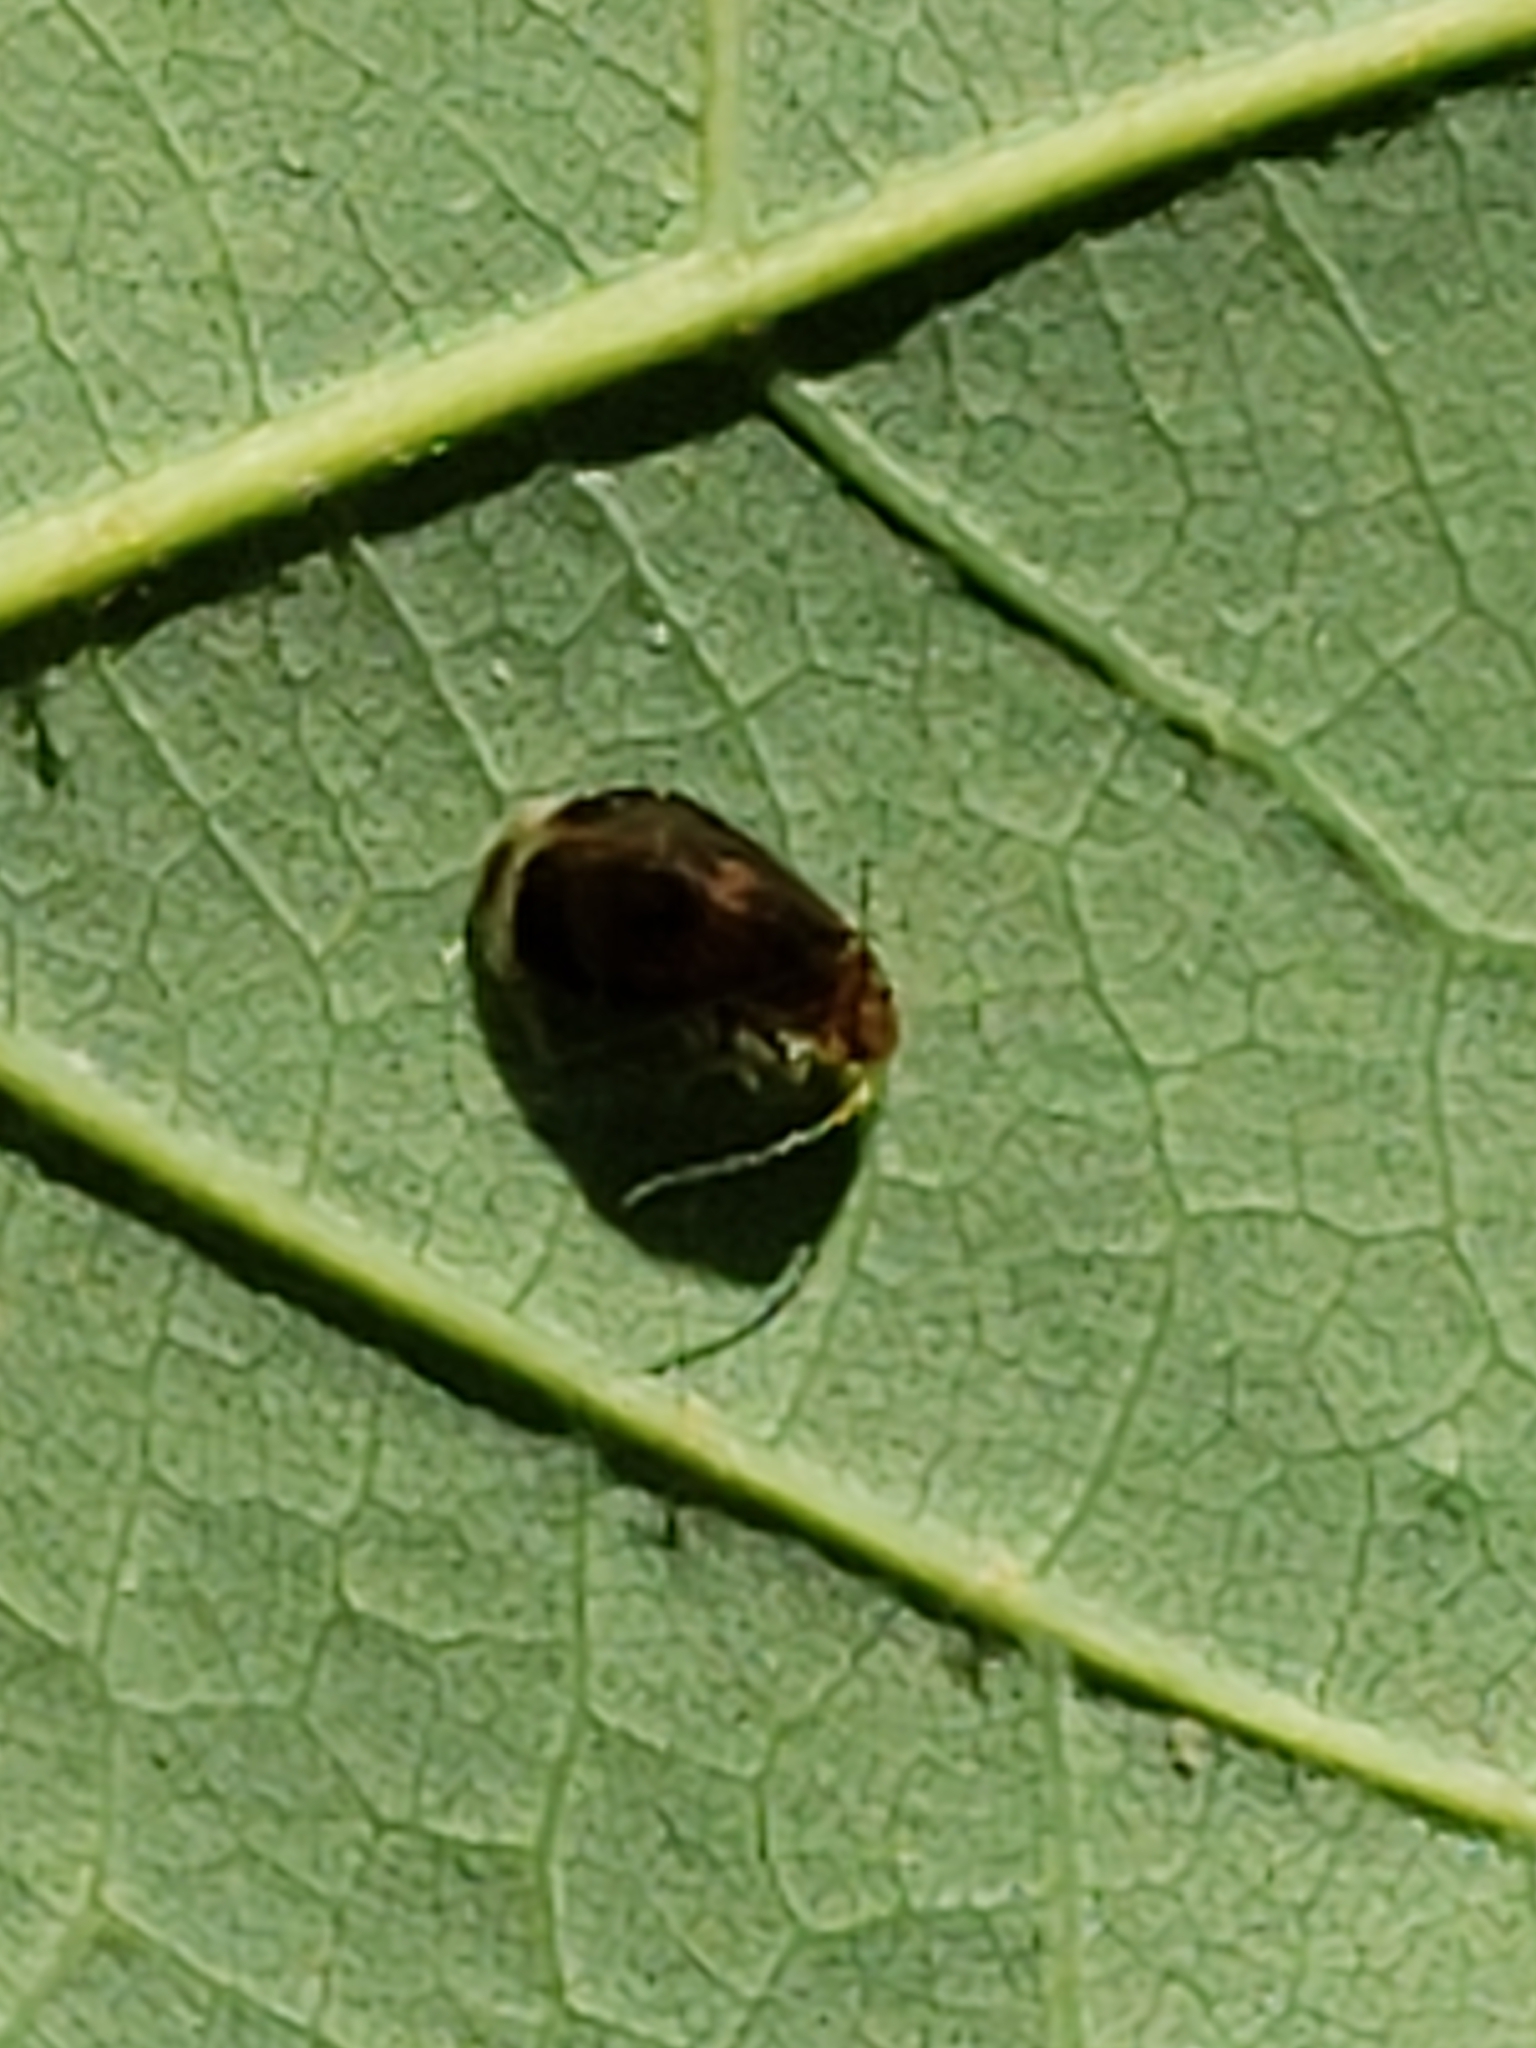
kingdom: Animalia
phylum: Arthropoda
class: Insecta
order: Psocodea
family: Amphipsocidae
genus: Polypsocus
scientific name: Polypsocus corruptus
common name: Corrupt barklouse
